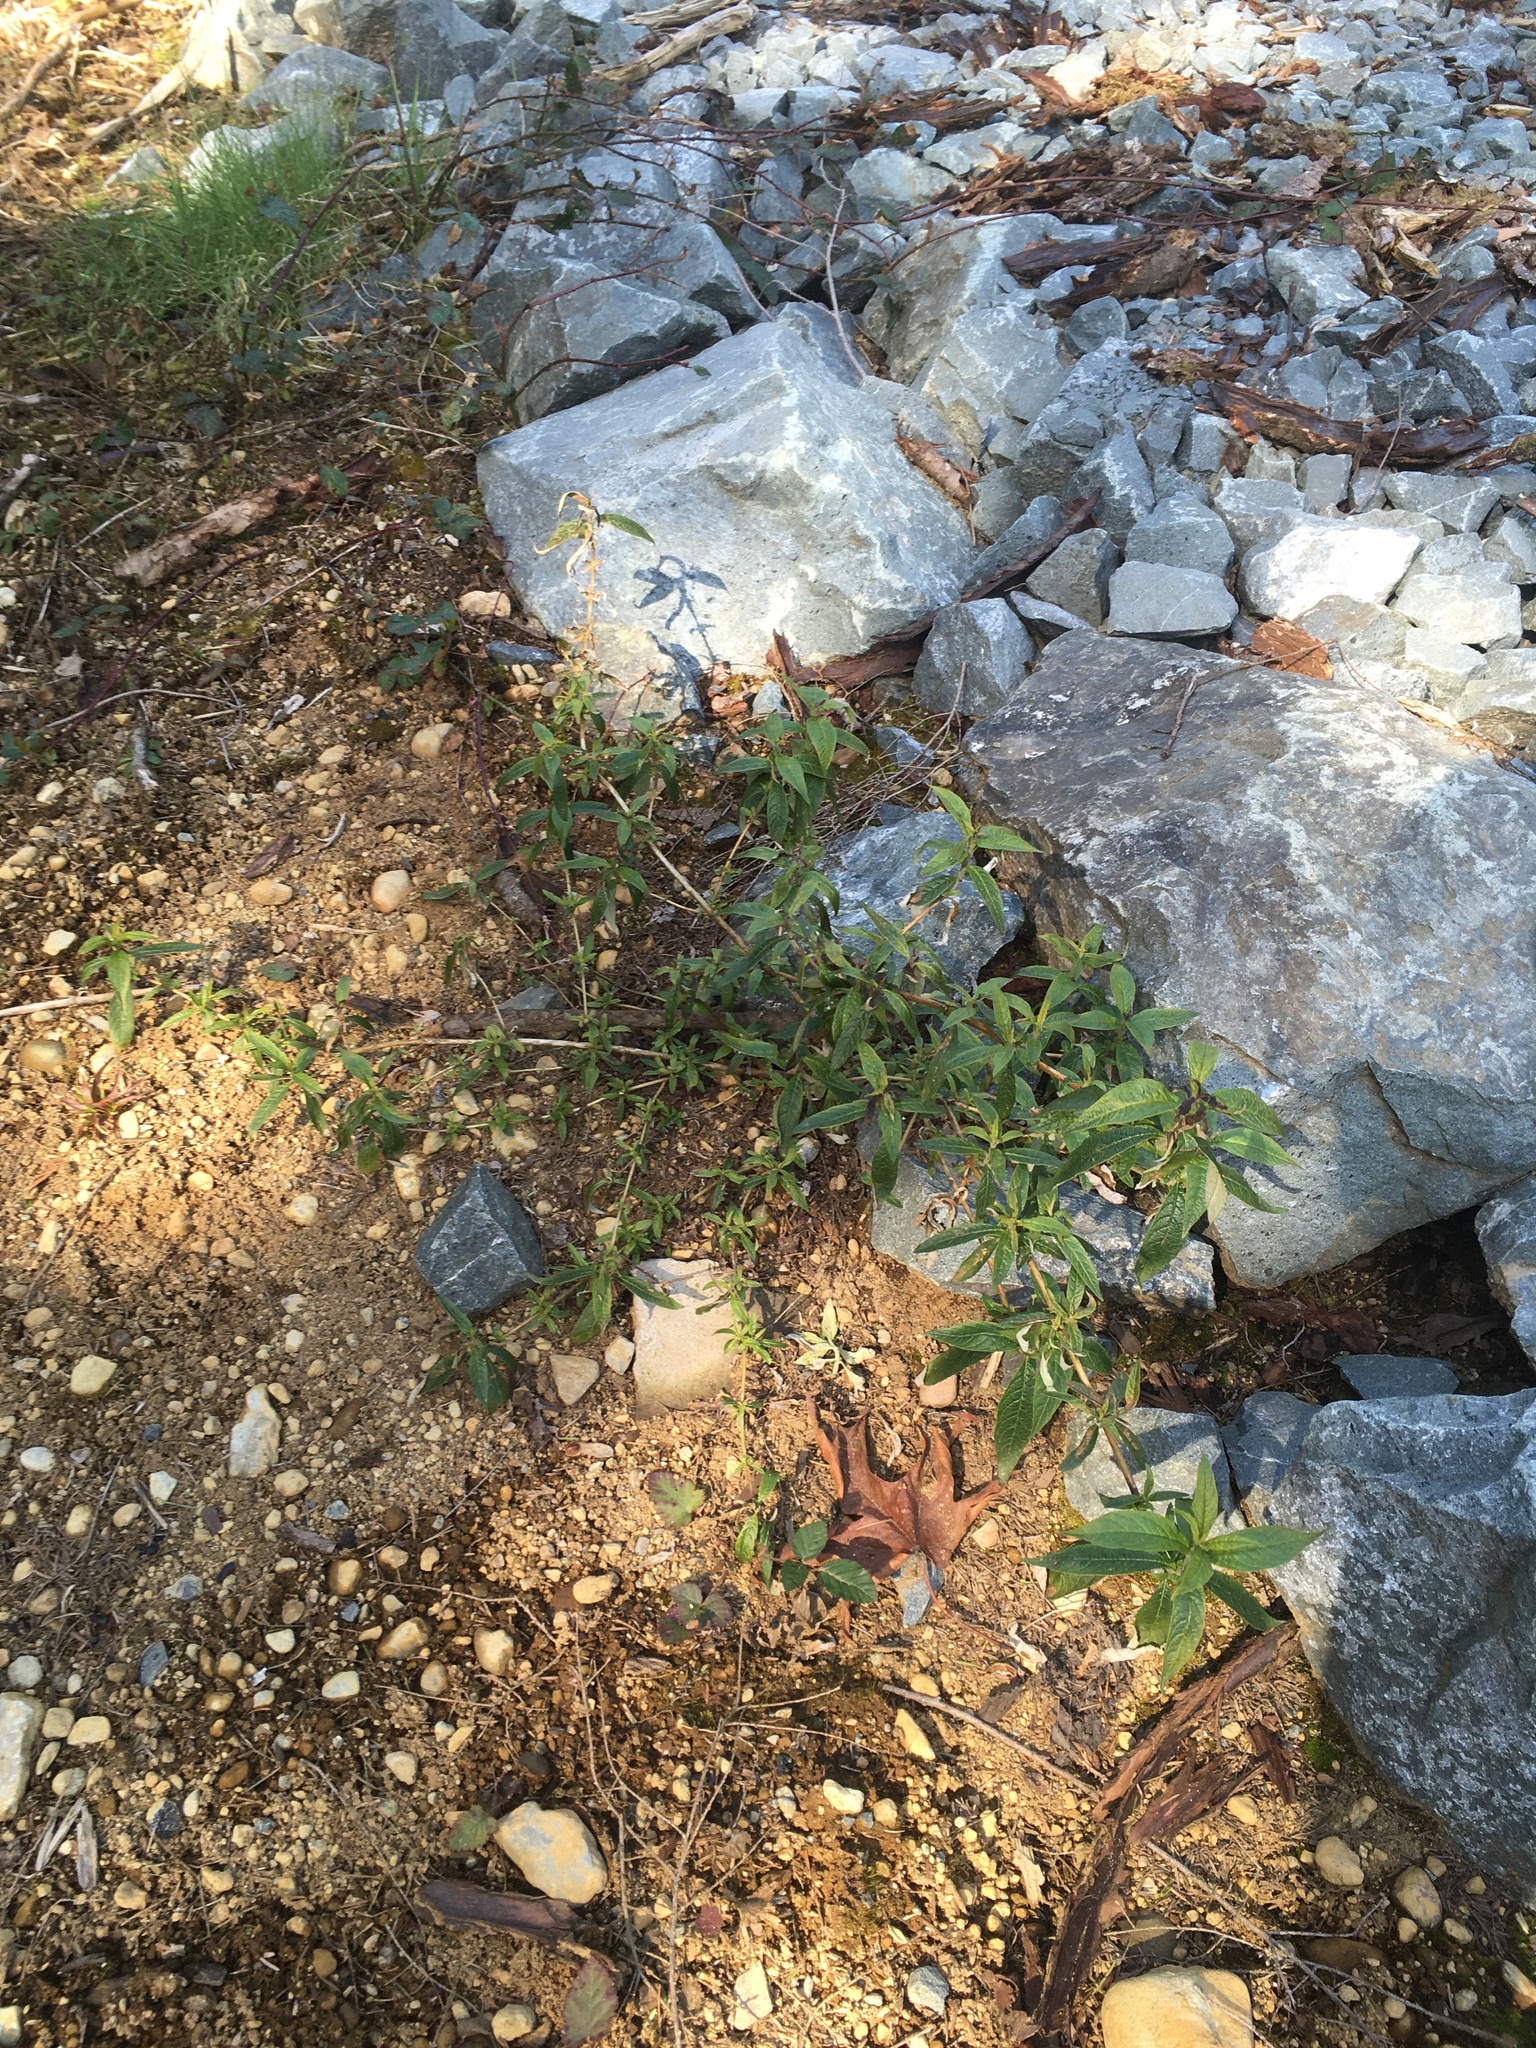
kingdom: Plantae
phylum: Tracheophyta
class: Magnoliopsida
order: Lamiales
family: Scrophulariaceae
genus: Buddleja
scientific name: Buddleja davidii
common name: Butterfly-bush
